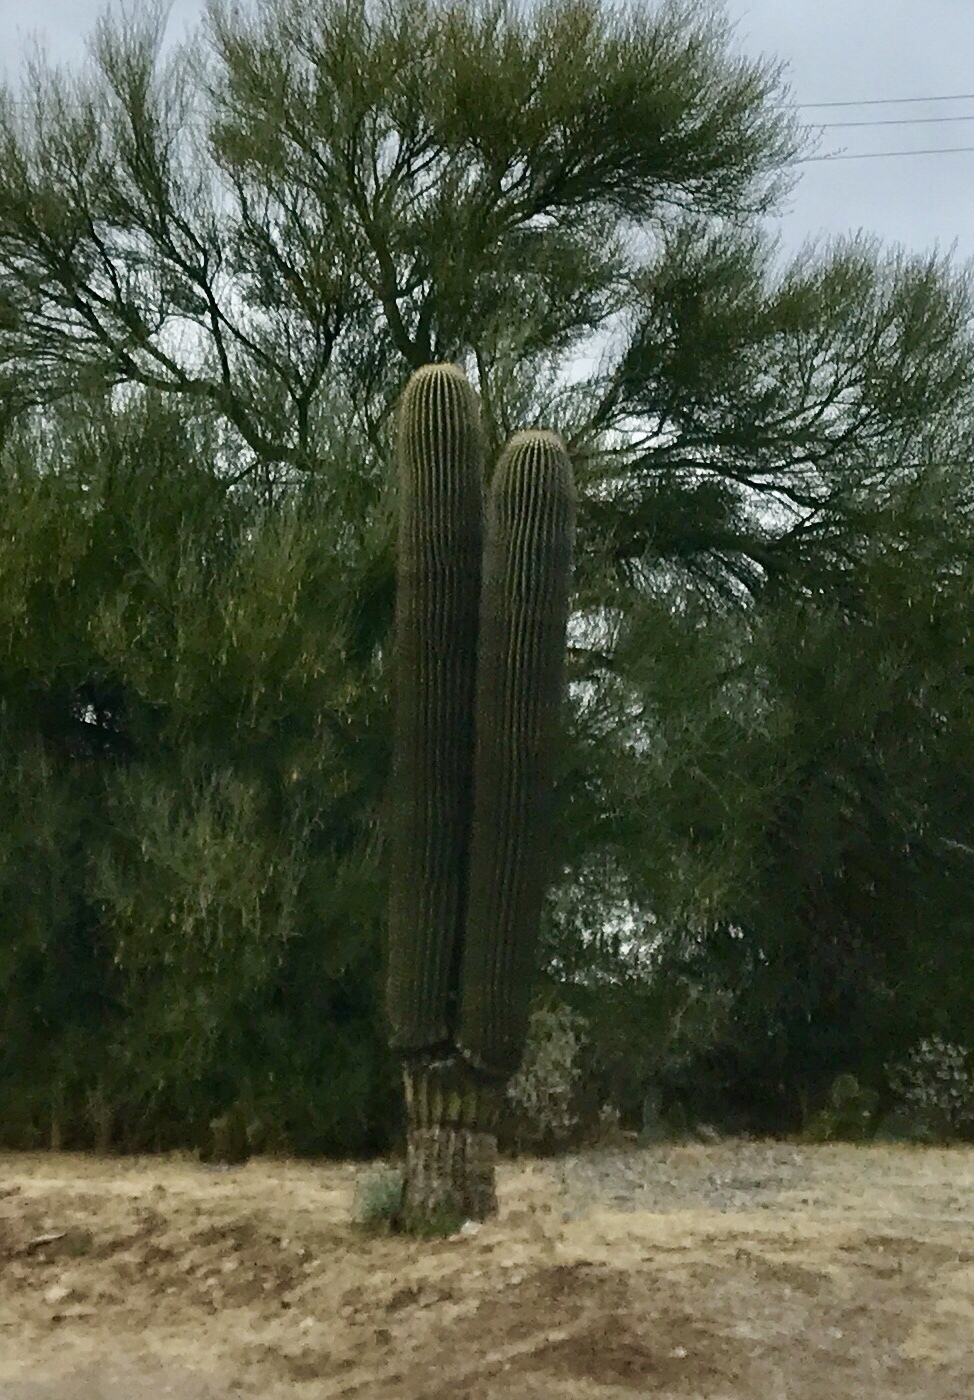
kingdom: Plantae
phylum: Tracheophyta
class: Magnoliopsida
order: Caryophyllales
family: Cactaceae
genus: Carnegiea
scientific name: Carnegiea gigantea
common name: Saguaro
